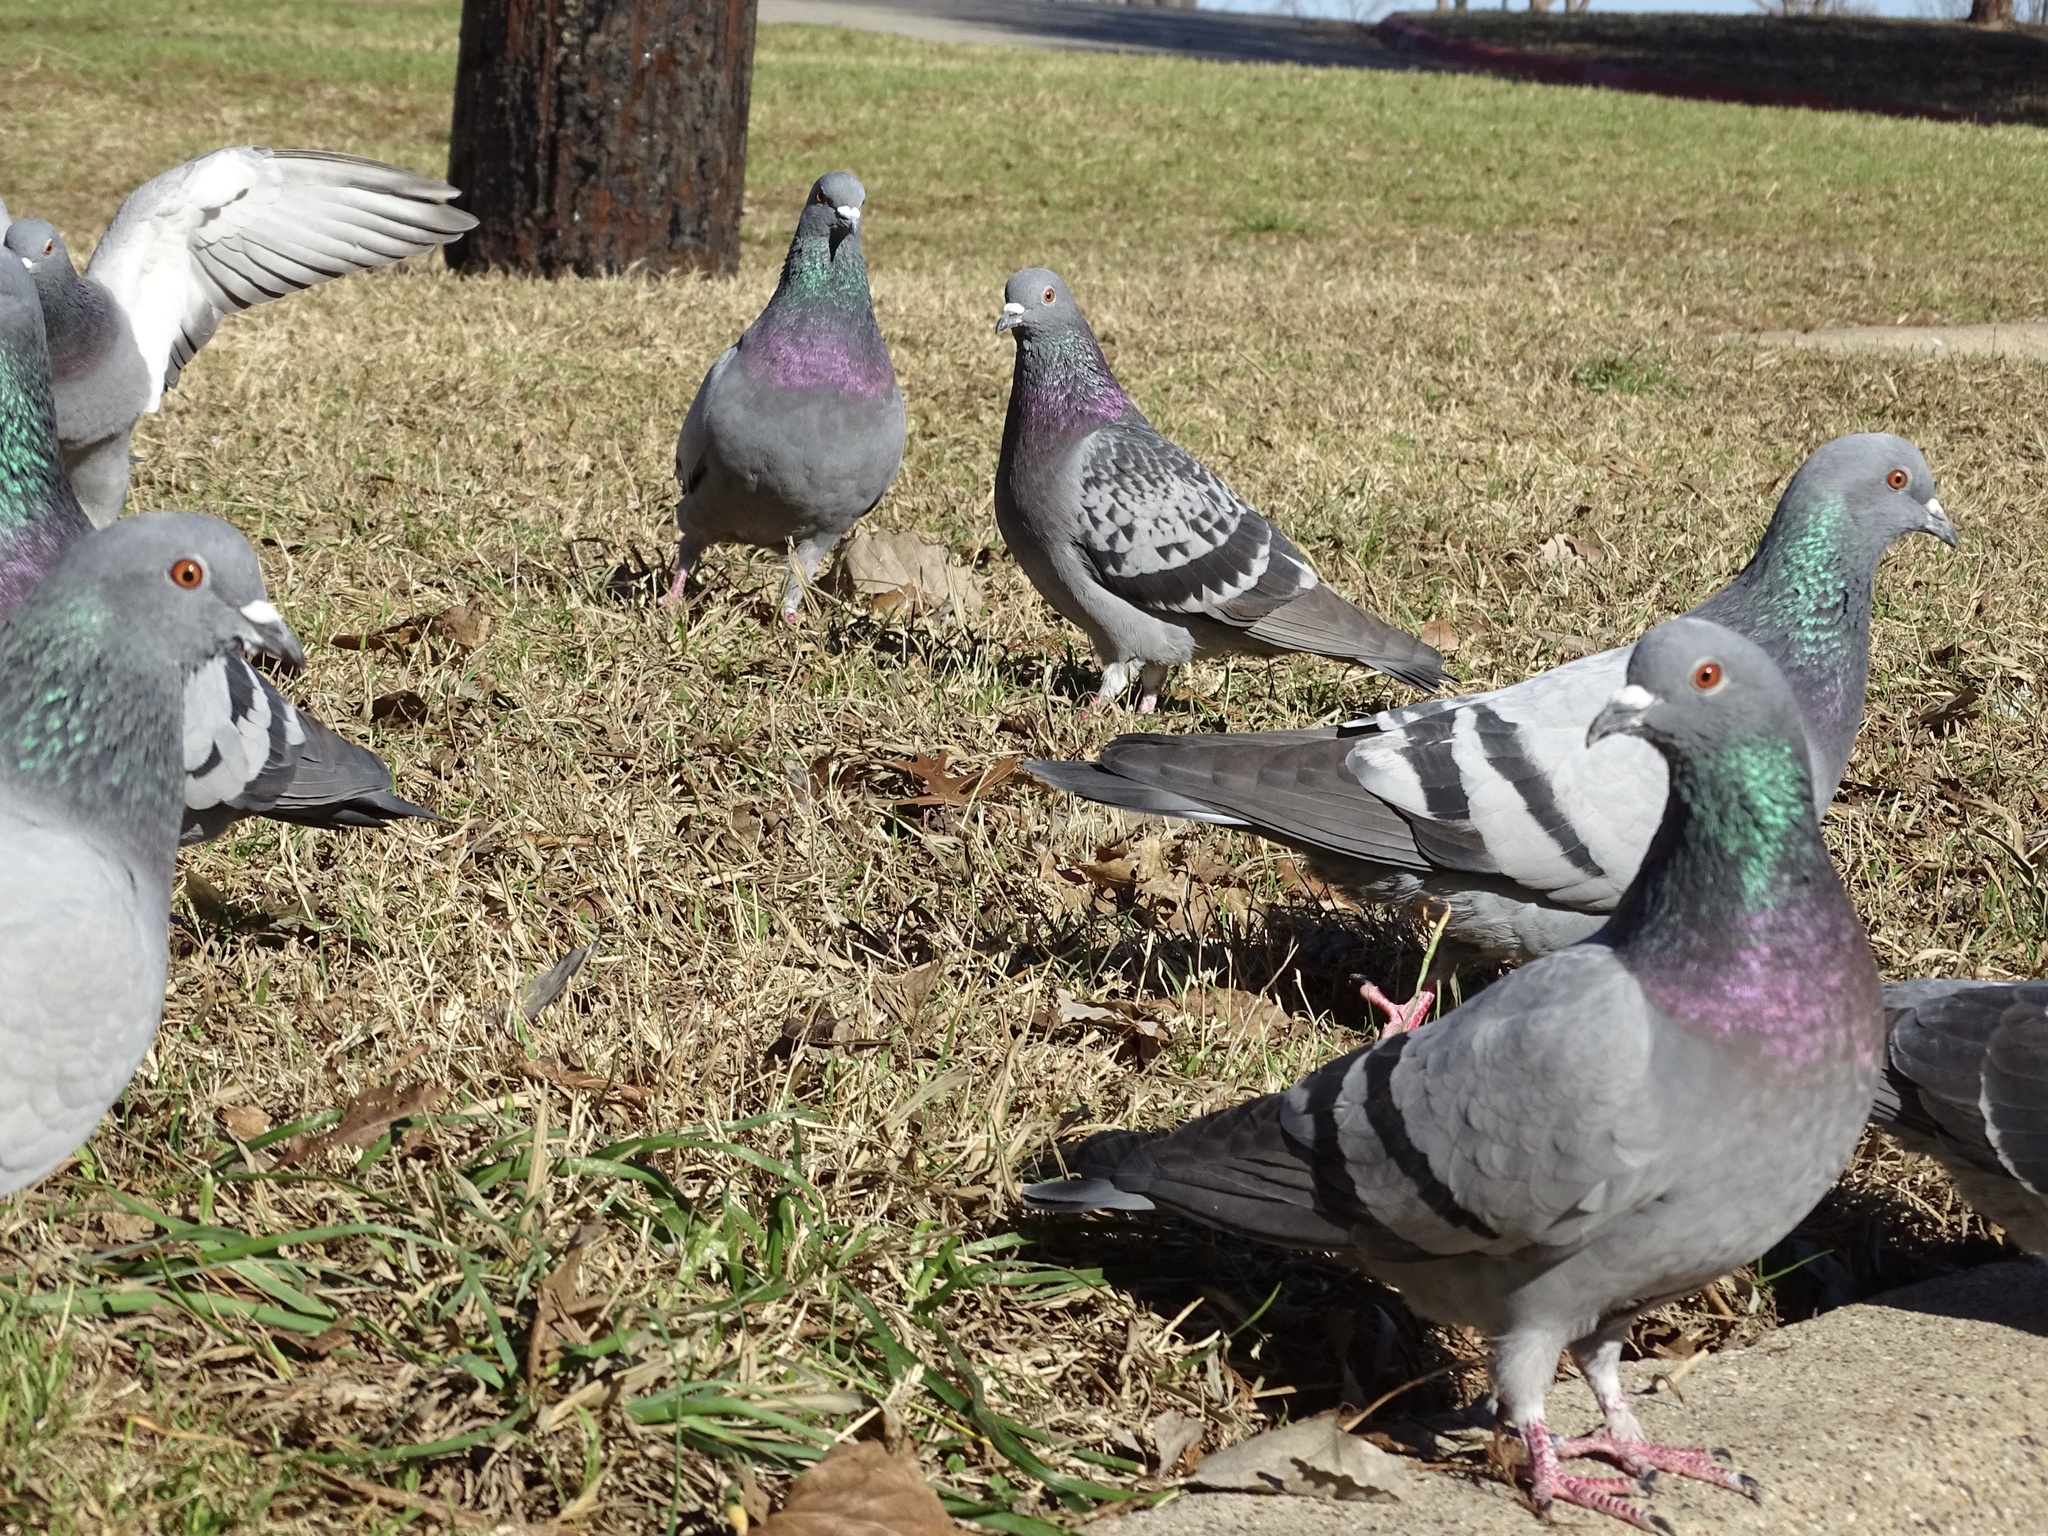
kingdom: Animalia
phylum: Chordata
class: Aves
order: Columbiformes
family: Columbidae
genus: Columba
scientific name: Columba livia
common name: Rock pigeon
